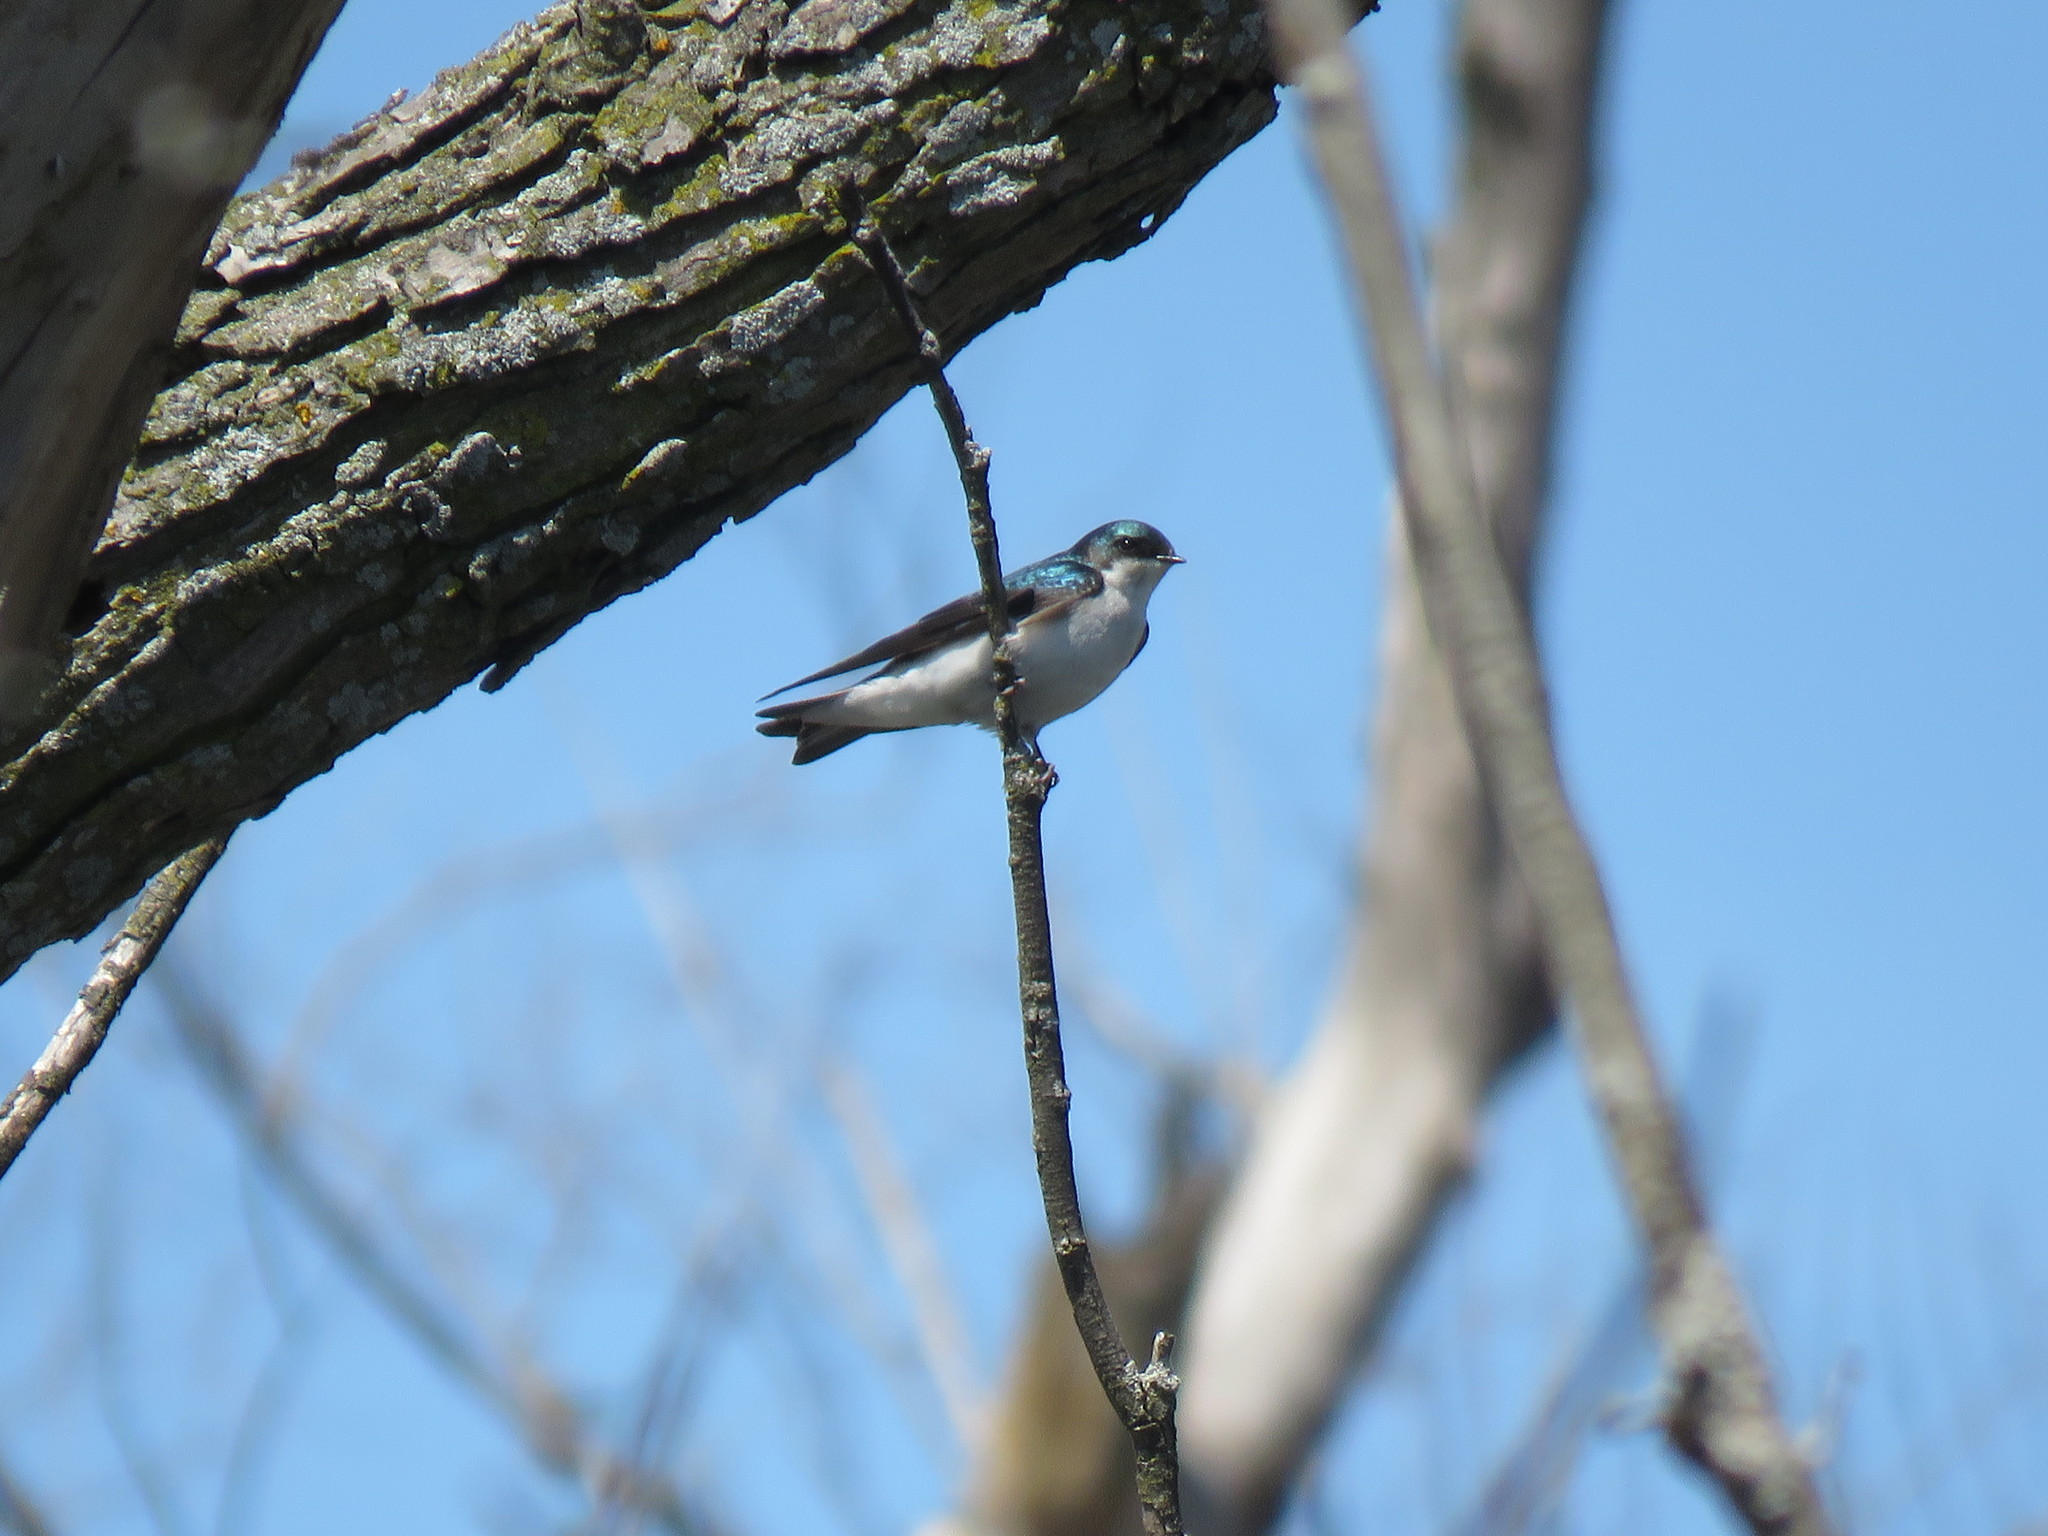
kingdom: Animalia
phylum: Chordata
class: Aves
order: Passeriformes
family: Hirundinidae
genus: Tachycineta
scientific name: Tachycineta bicolor
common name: Tree swallow
